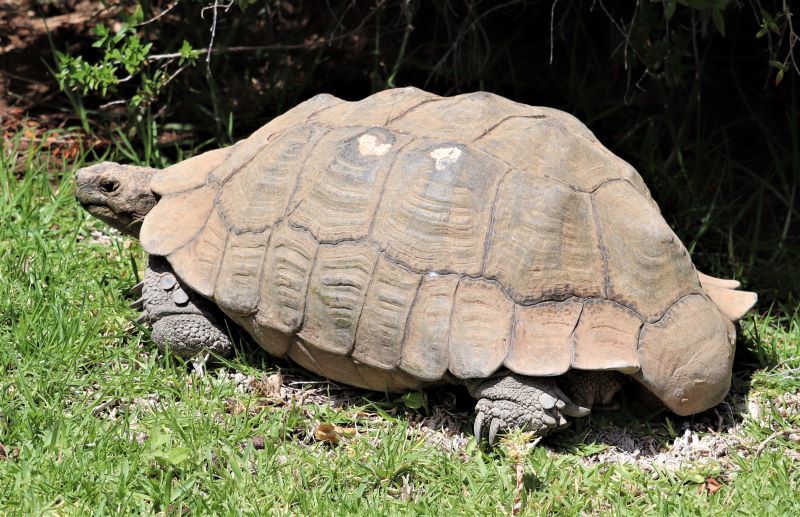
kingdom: Animalia
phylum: Chordata
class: Testudines
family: Testudinidae
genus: Stigmochelys
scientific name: Stigmochelys pardalis
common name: Leopard tortoise
